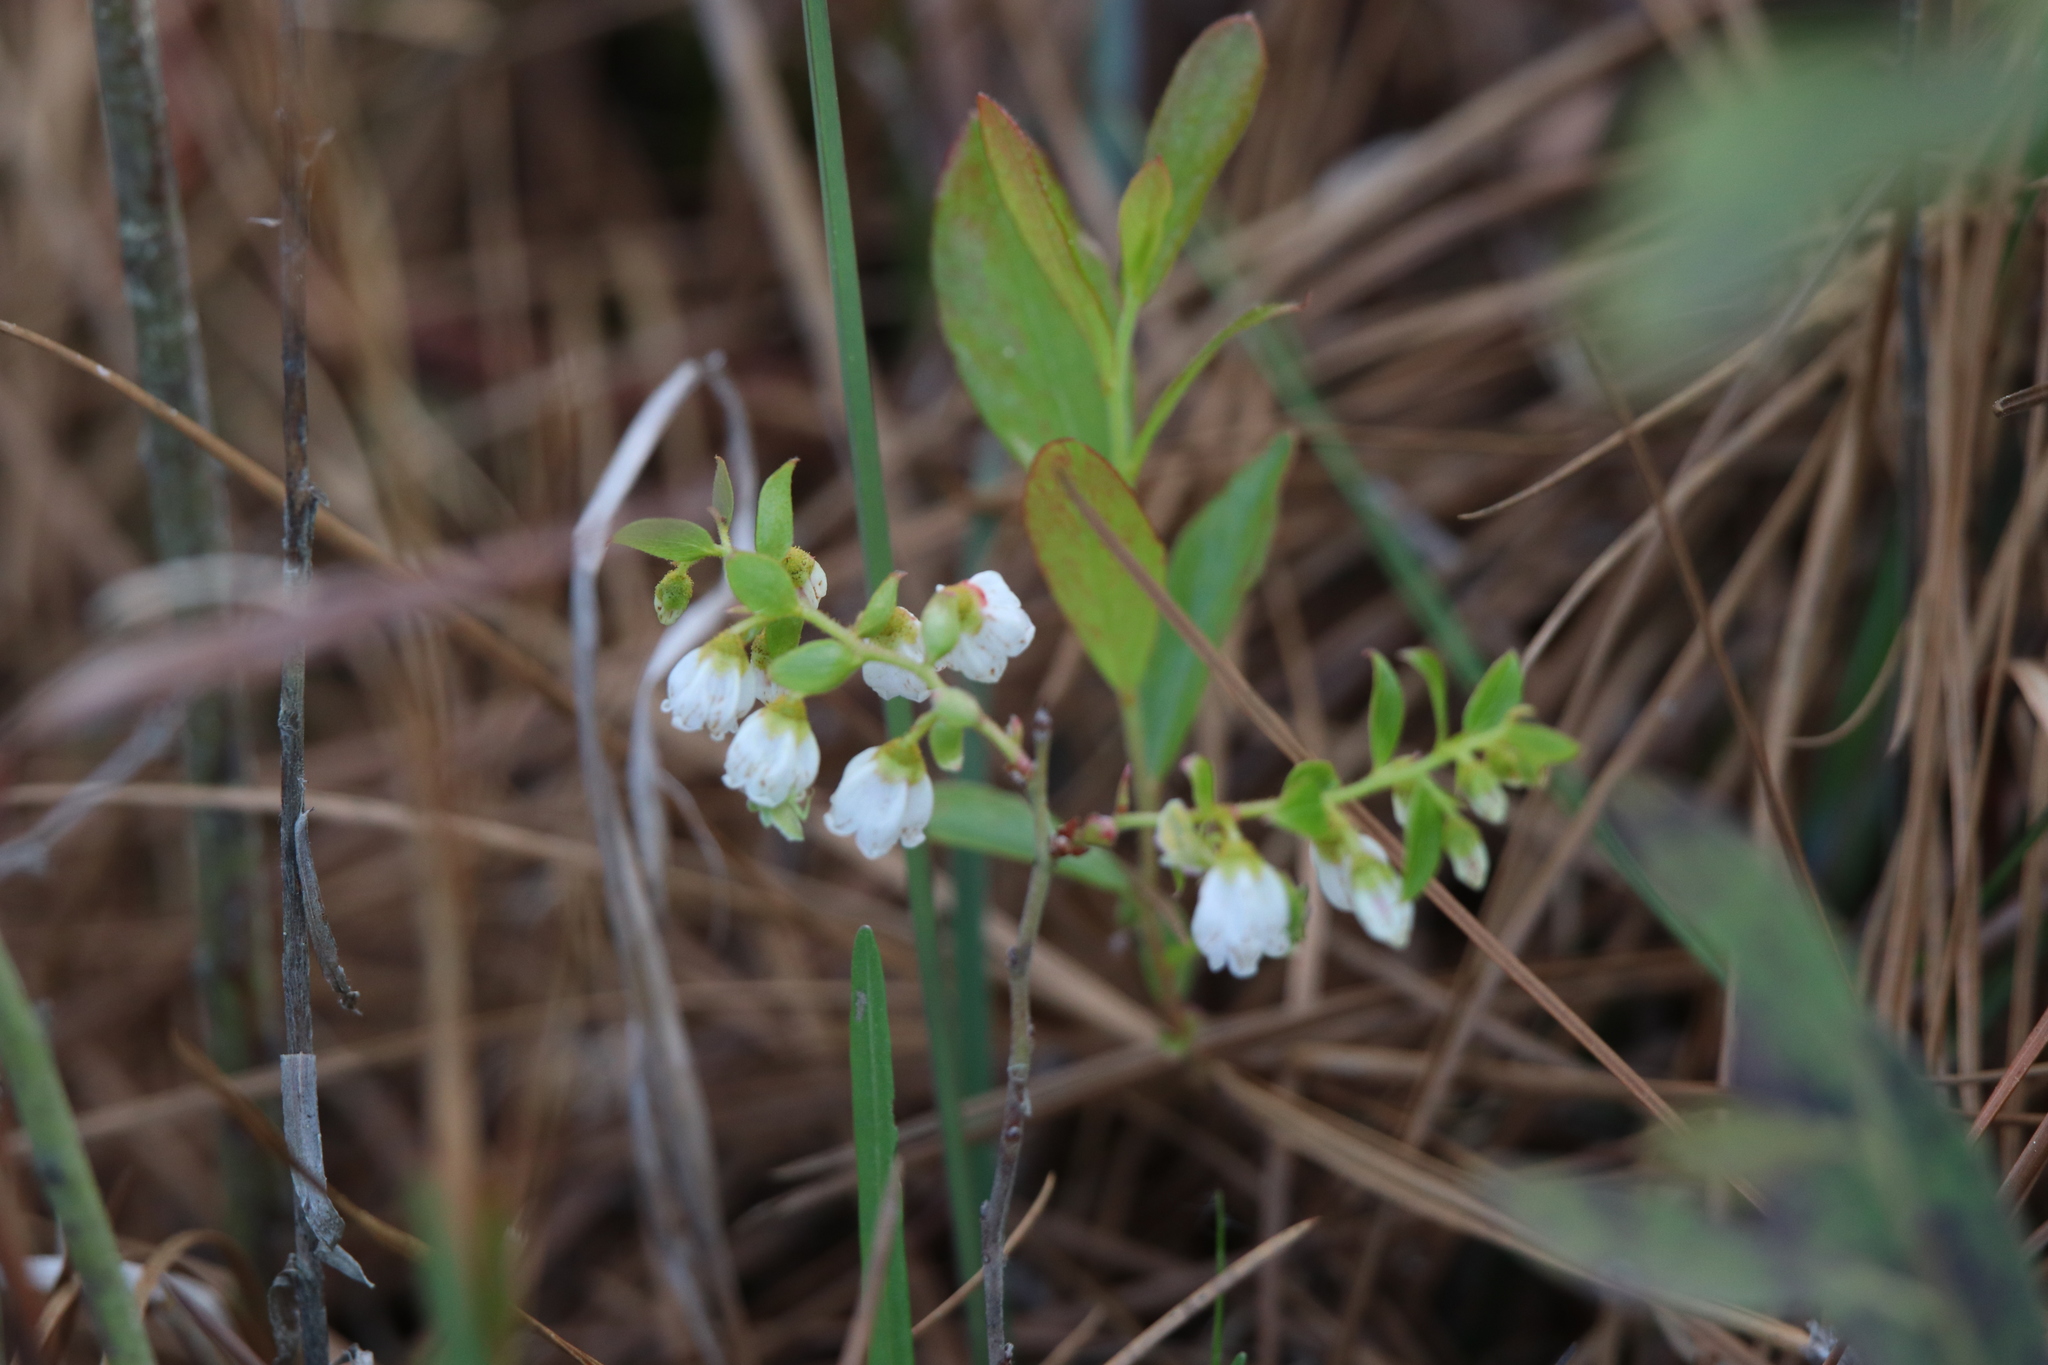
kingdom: Plantae
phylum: Tracheophyta
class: Magnoliopsida
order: Ericales
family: Ericaceae
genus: Gaylussacia
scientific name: Gaylussacia dumosa
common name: Dwarf huckleberry
